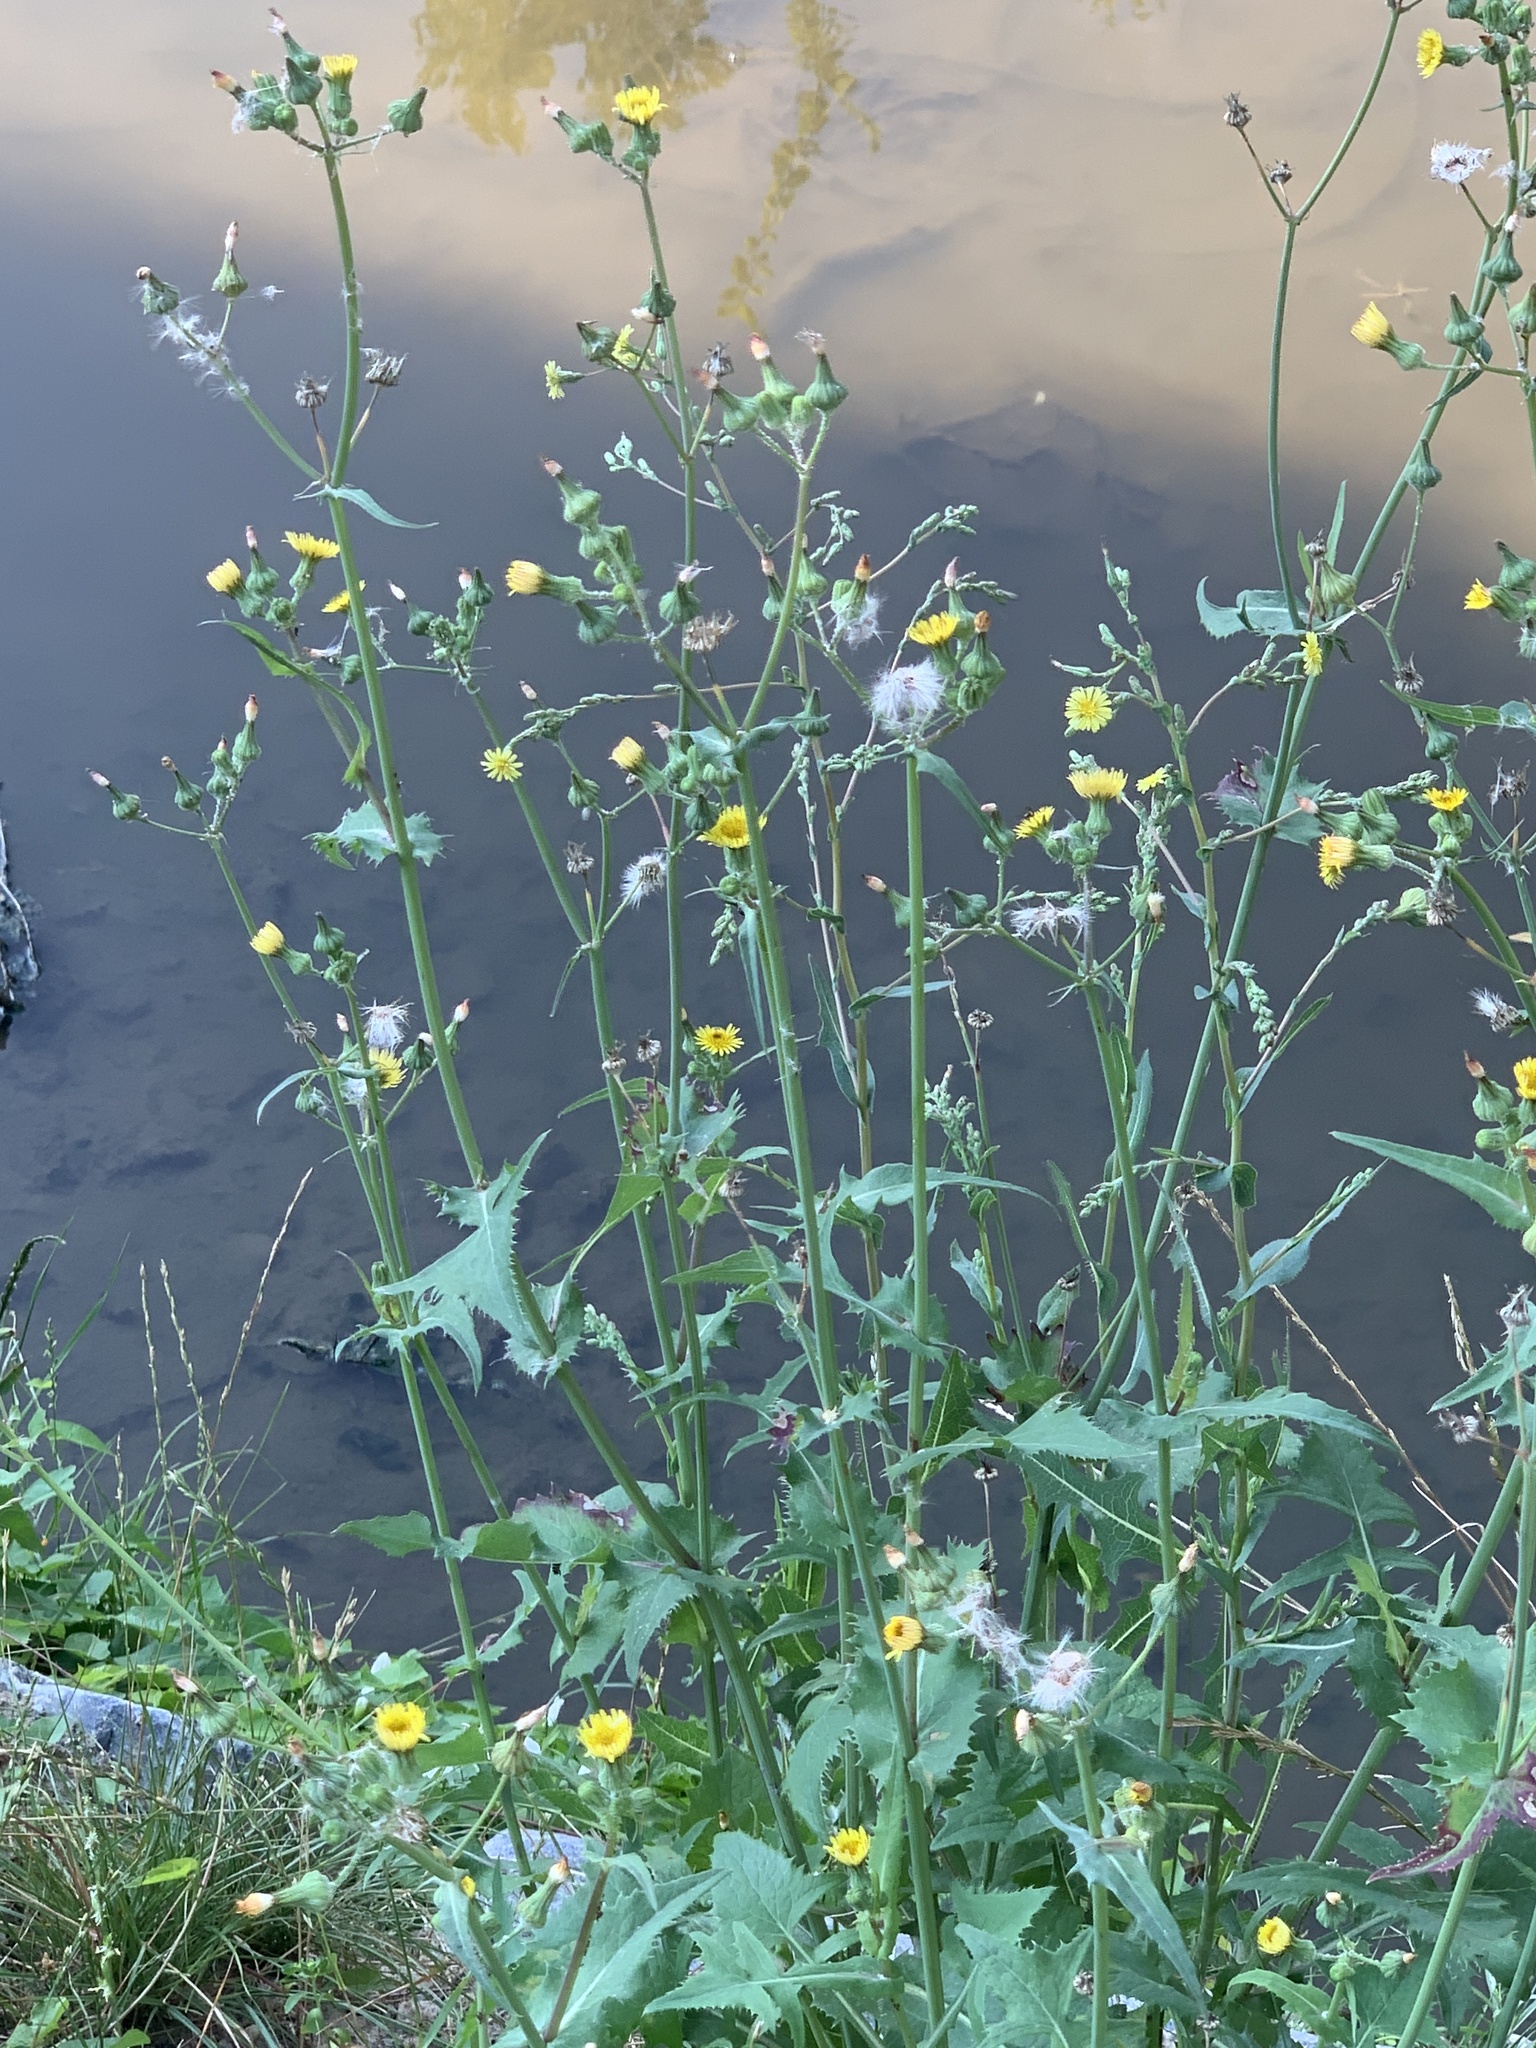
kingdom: Plantae
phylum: Tracheophyta
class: Magnoliopsida
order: Asterales
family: Asteraceae
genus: Sonchus
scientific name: Sonchus oleraceus
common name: Common sowthistle
